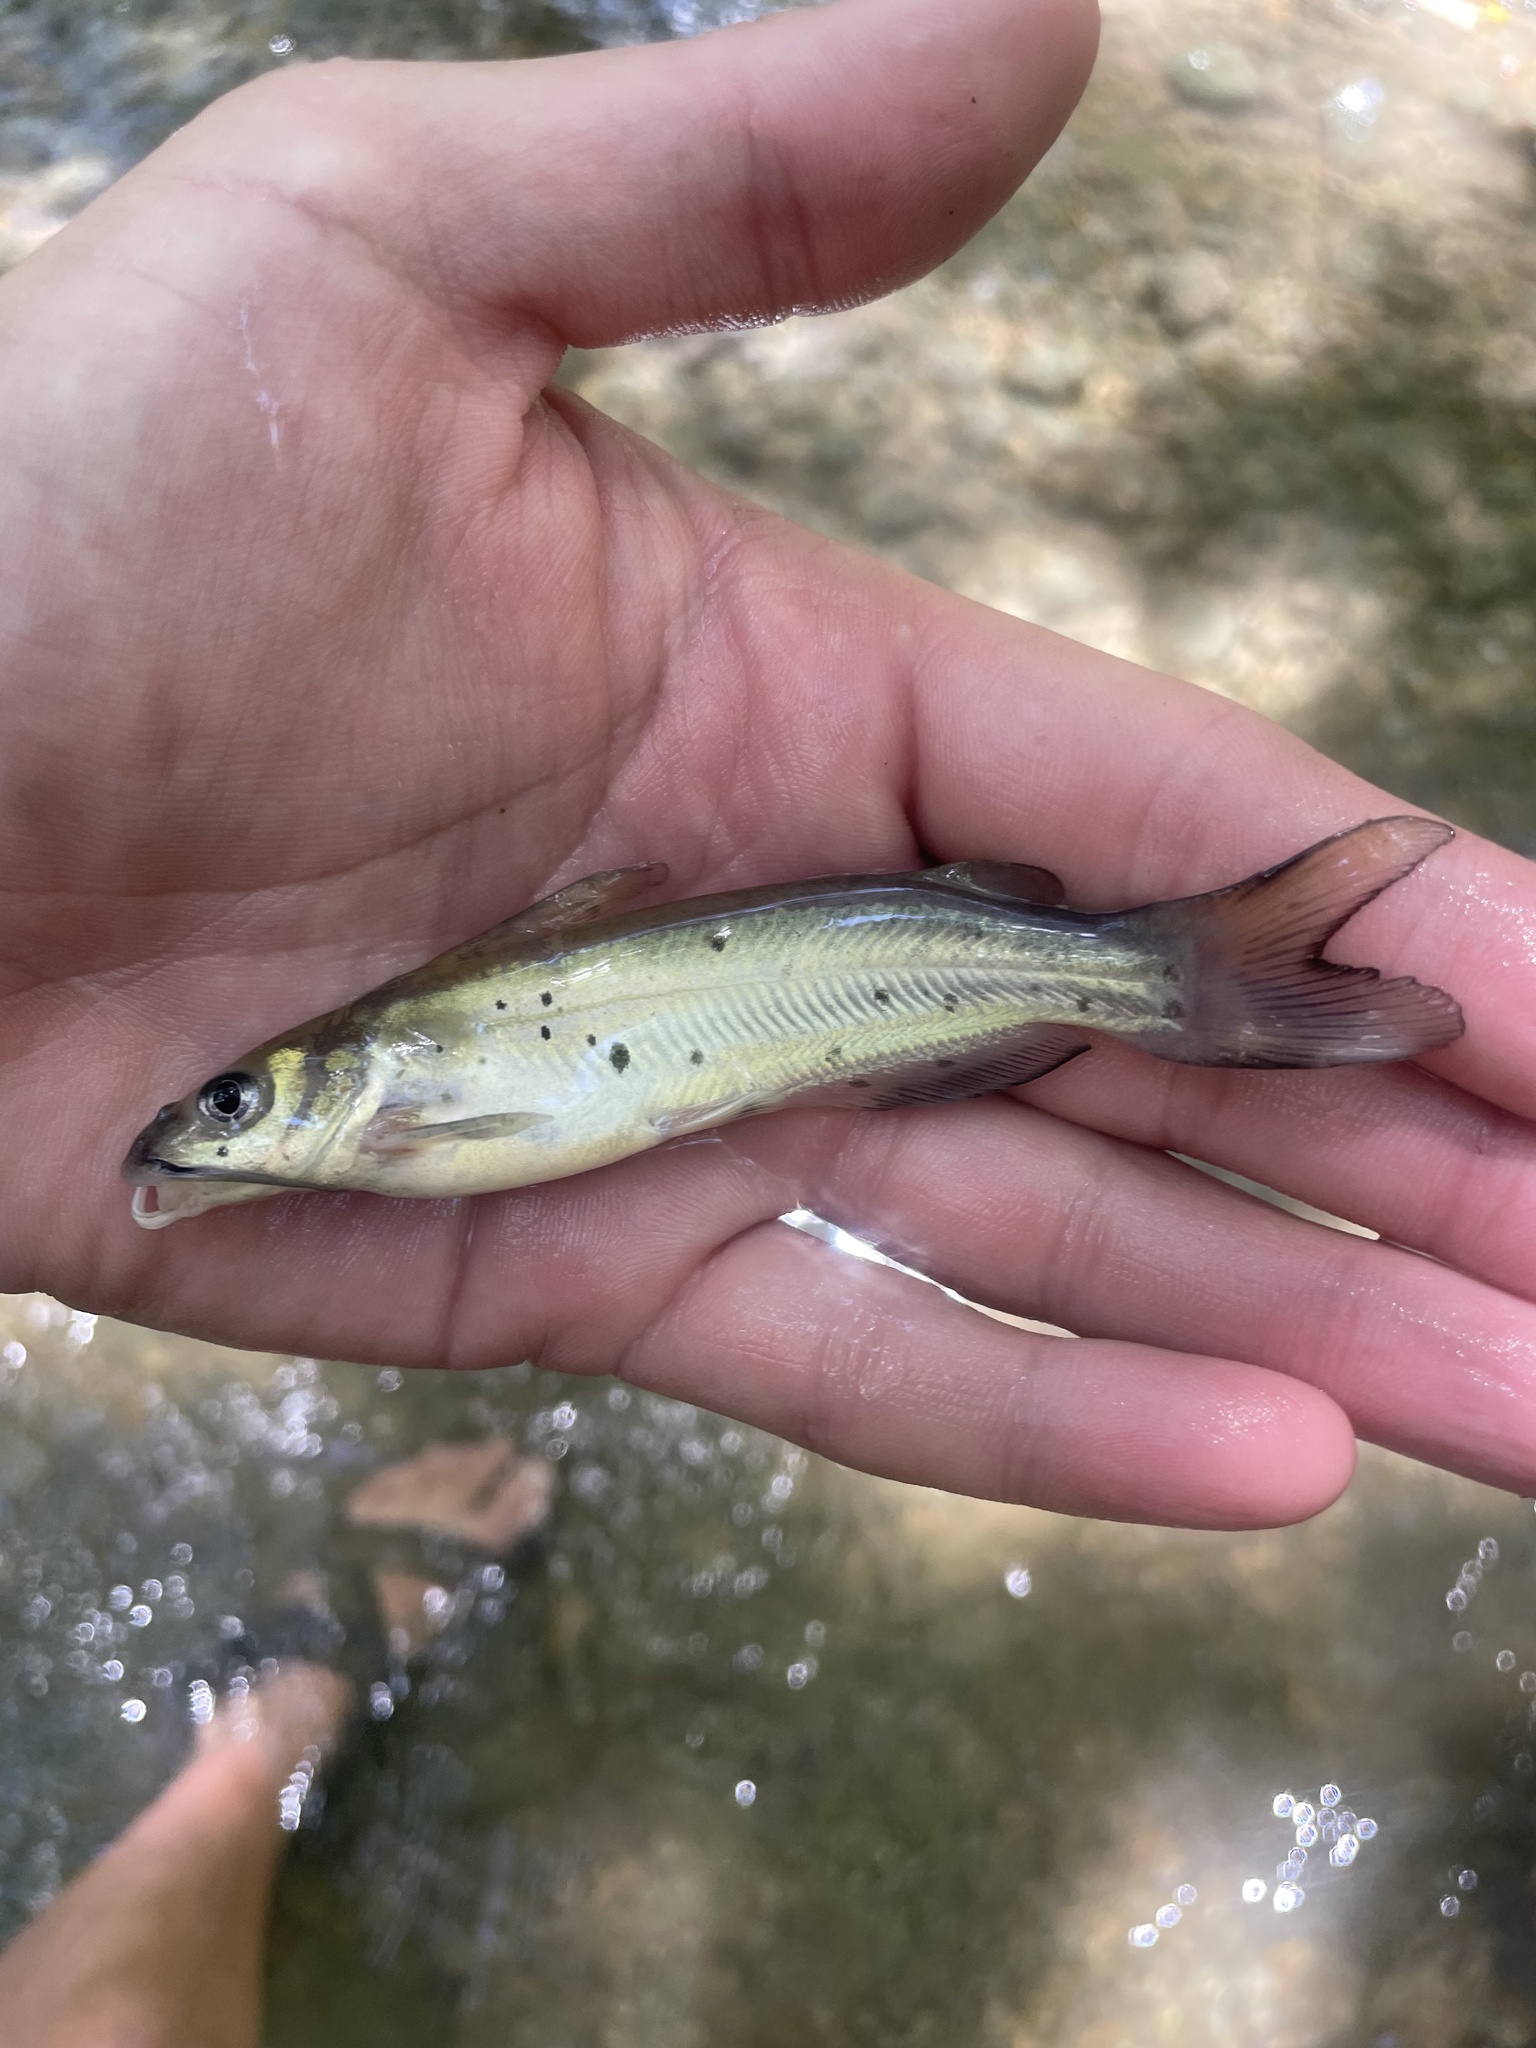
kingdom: Animalia
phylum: Chordata
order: Siluriformes
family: Ictaluridae
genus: Ictalurus
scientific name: Ictalurus punctatus
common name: Channel catfish
